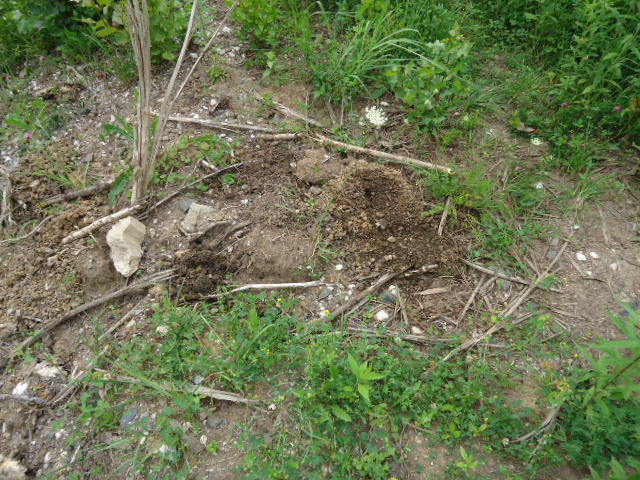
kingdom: Animalia
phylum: Chordata
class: Mammalia
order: Soricomorpha
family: Talpidae
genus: Talpa
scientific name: Talpa europaea
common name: European mole
